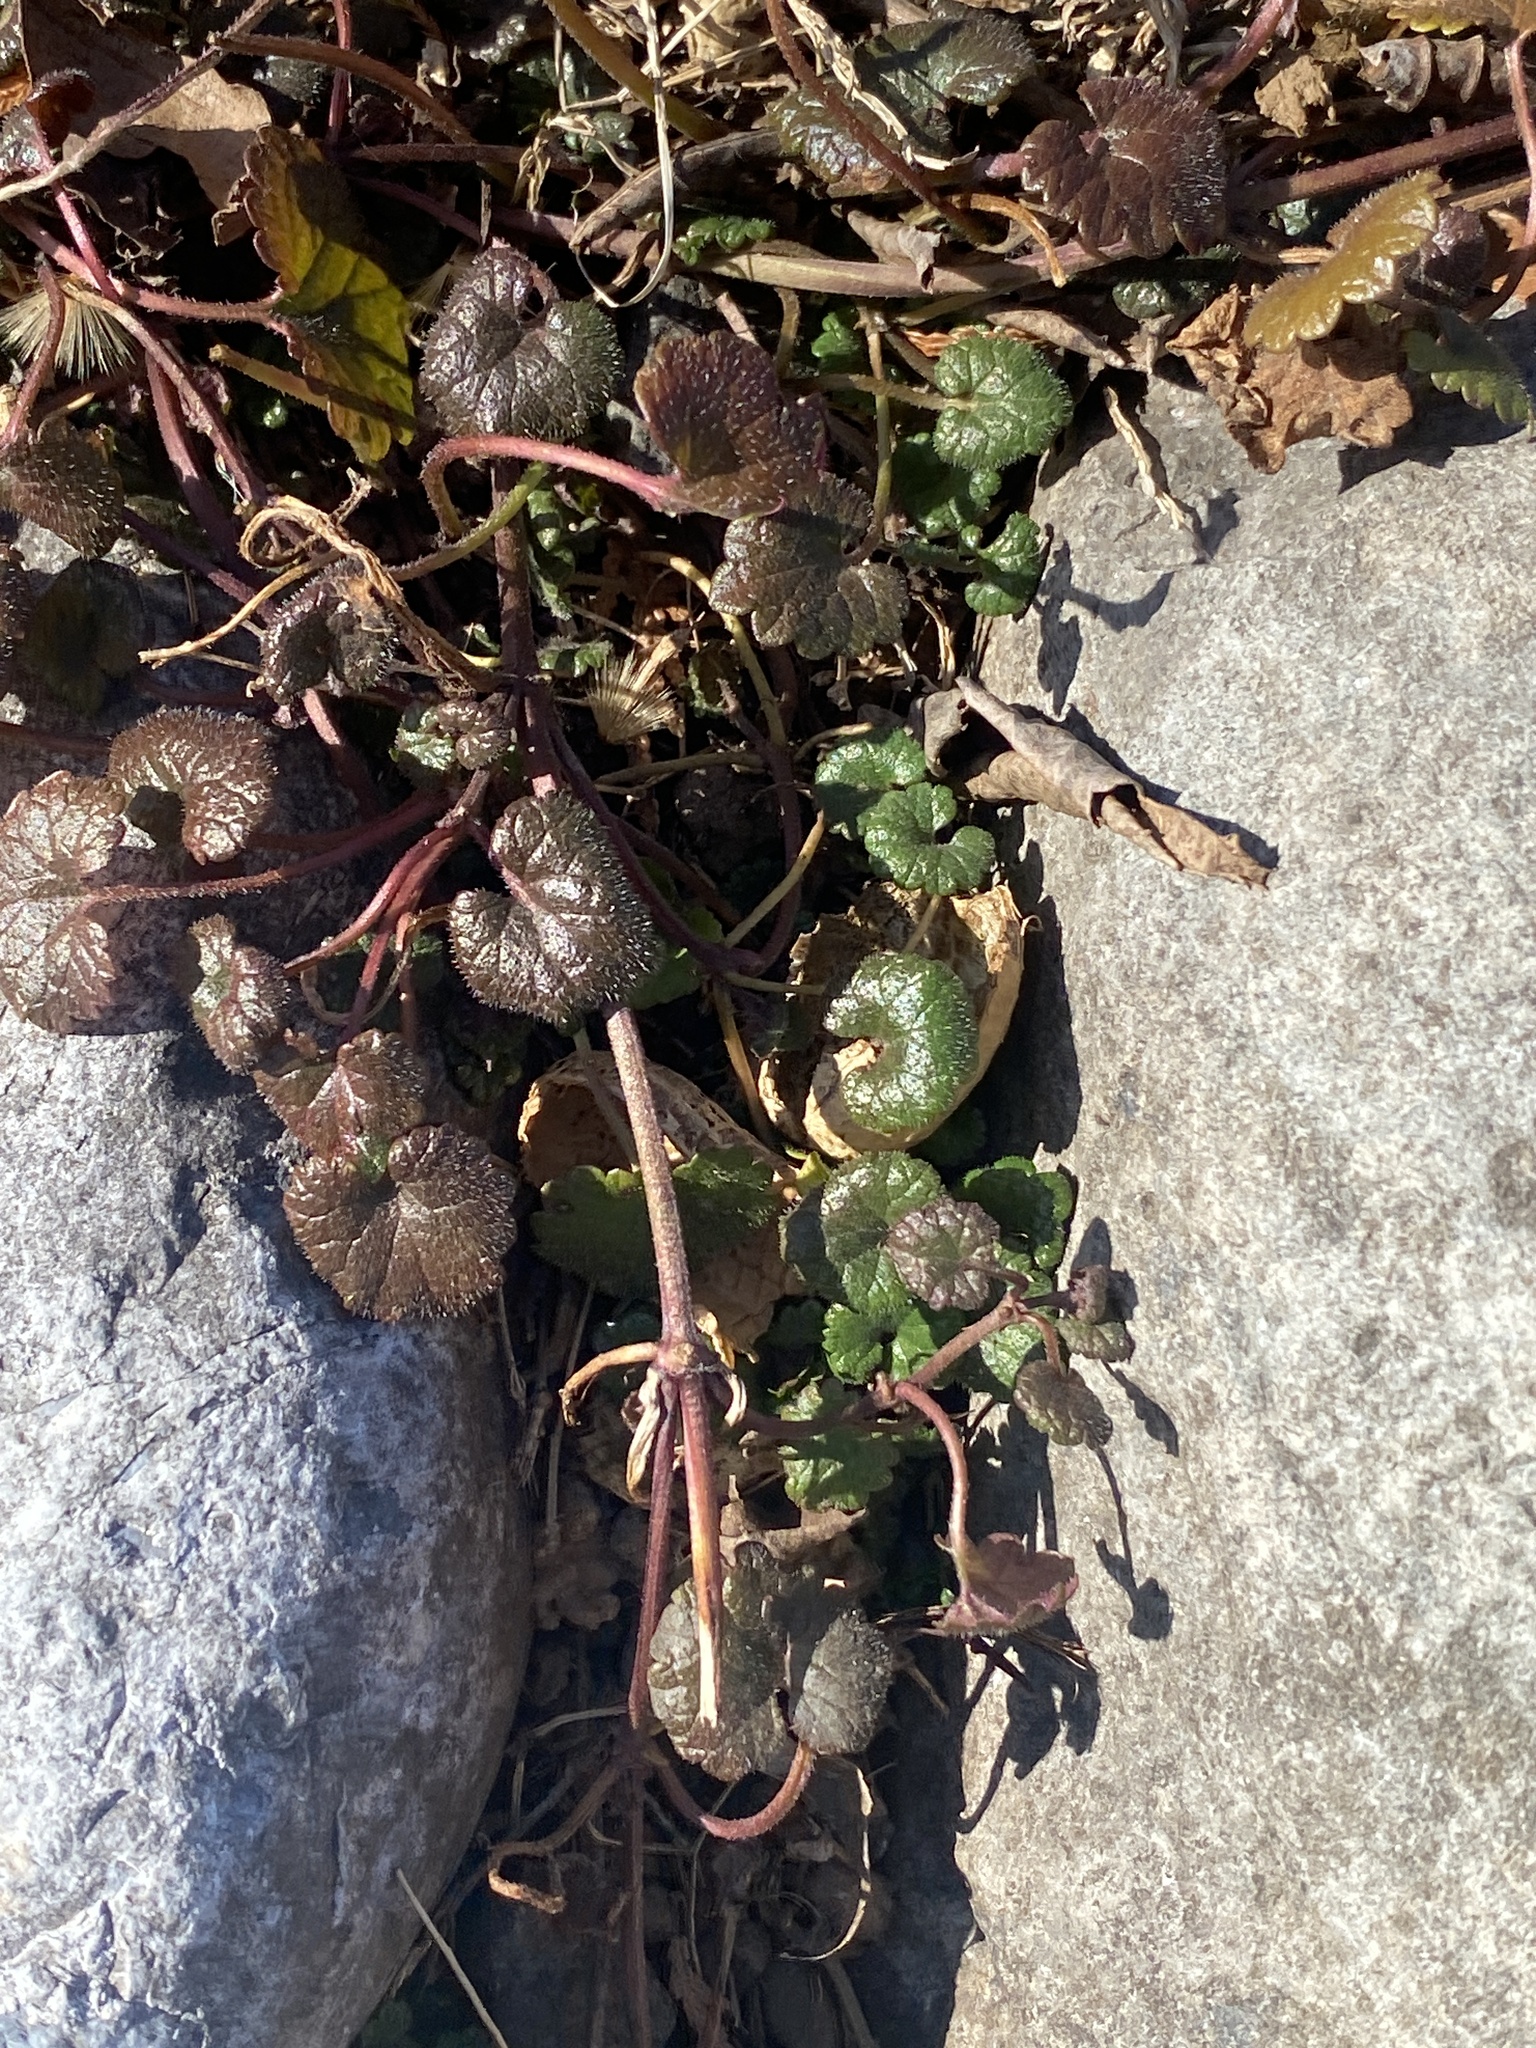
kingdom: Plantae
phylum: Tracheophyta
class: Magnoliopsida
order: Lamiales
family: Lamiaceae
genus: Glechoma
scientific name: Glechoma hederacea
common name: Ground ivy
